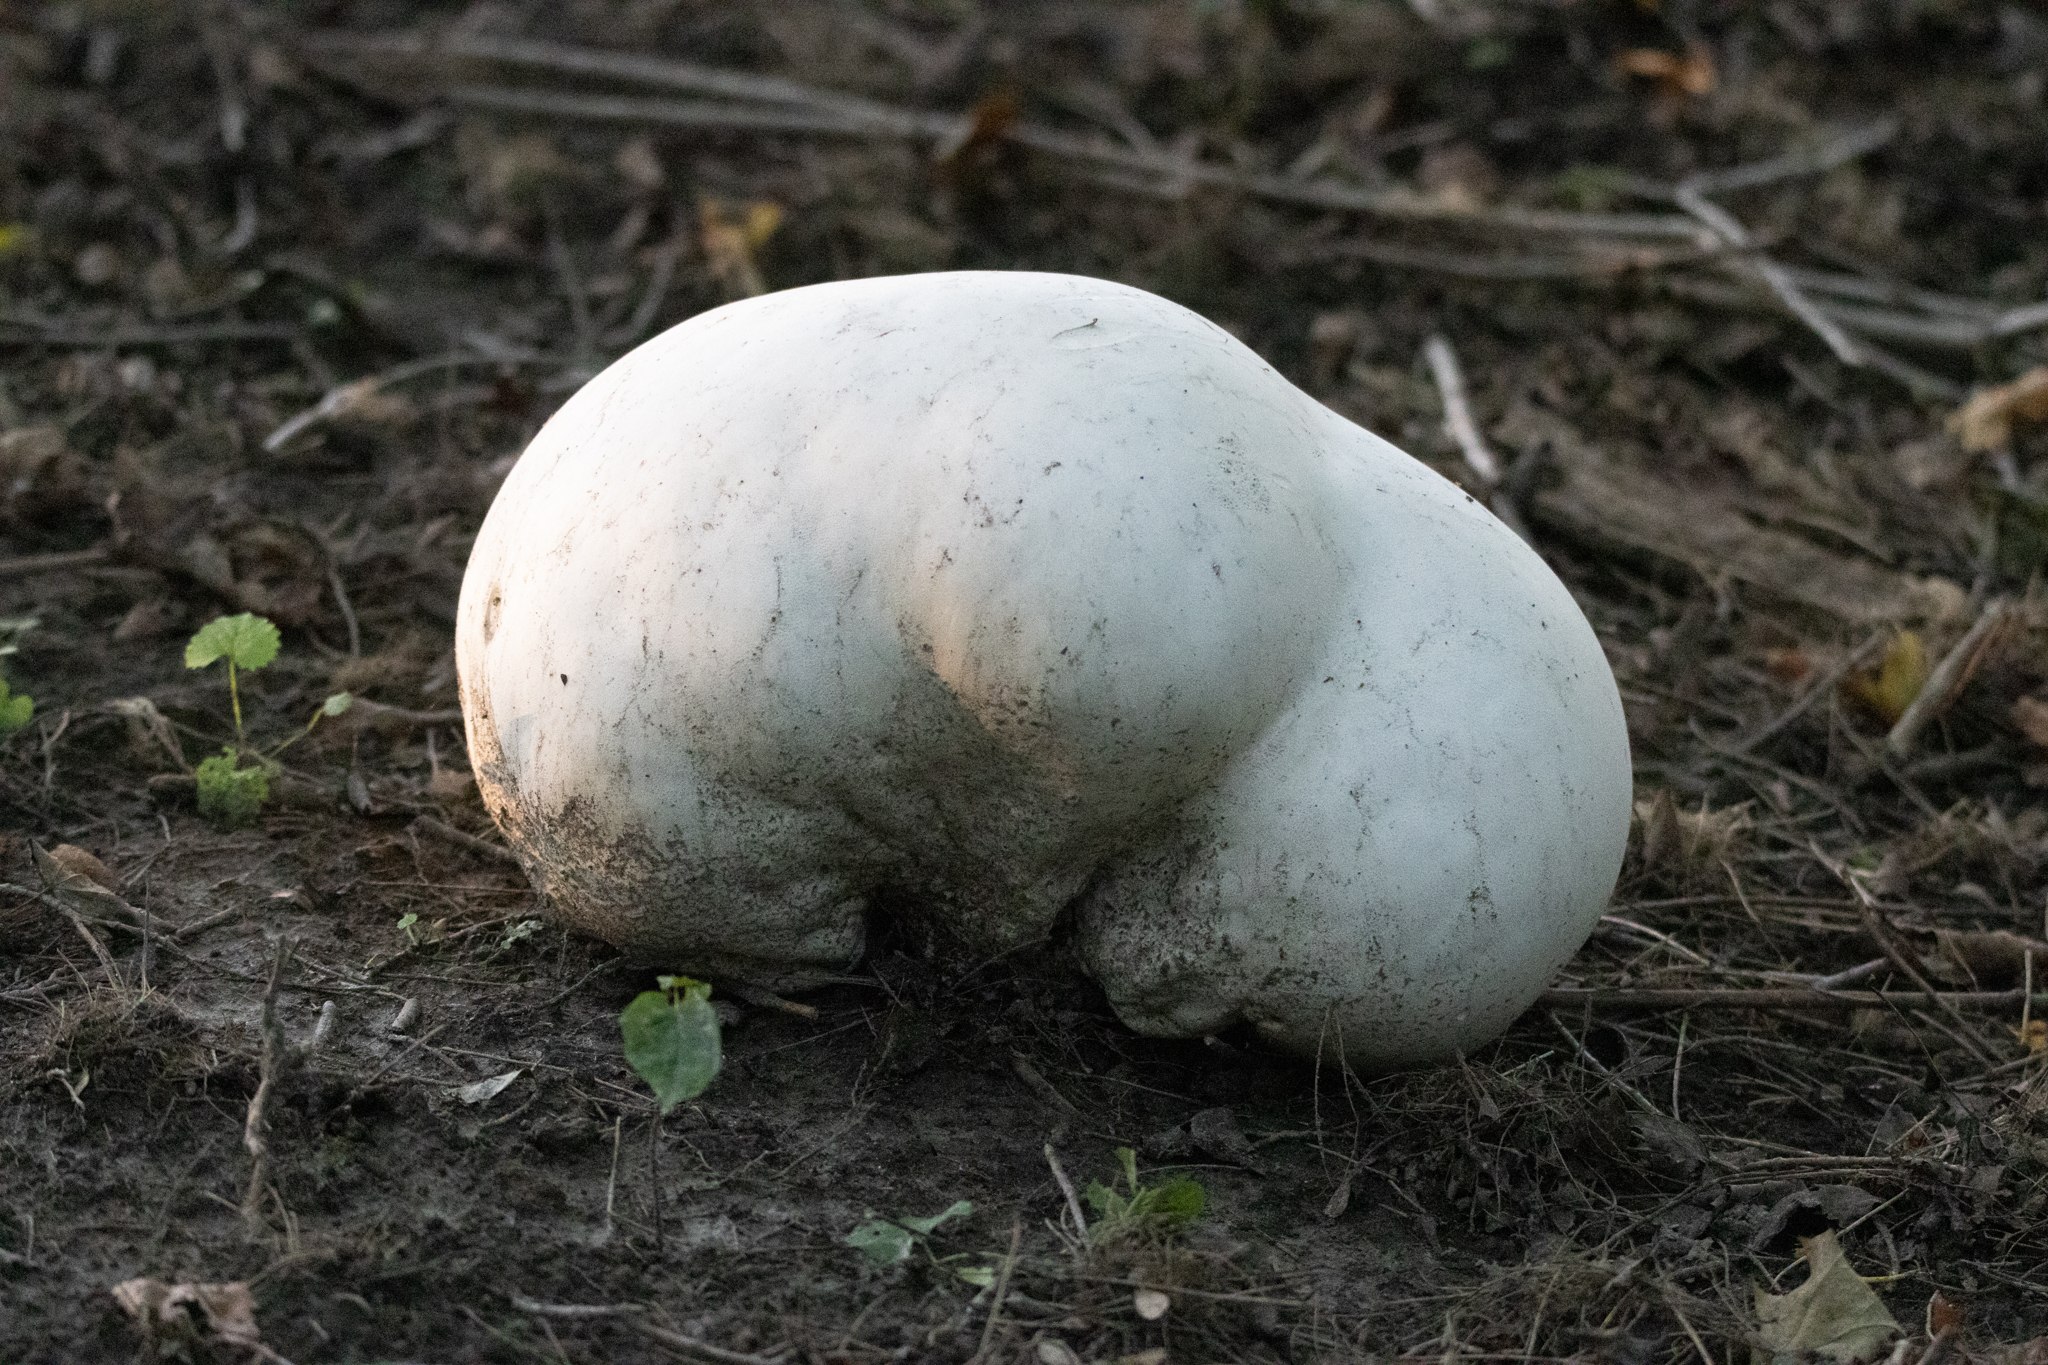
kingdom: Fungi
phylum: Basidiomycota
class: Agaricomycetes
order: Agaricales
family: Lycoperdaceae
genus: Calvatia
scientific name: Calvatia gigantea
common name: Giant puffball
